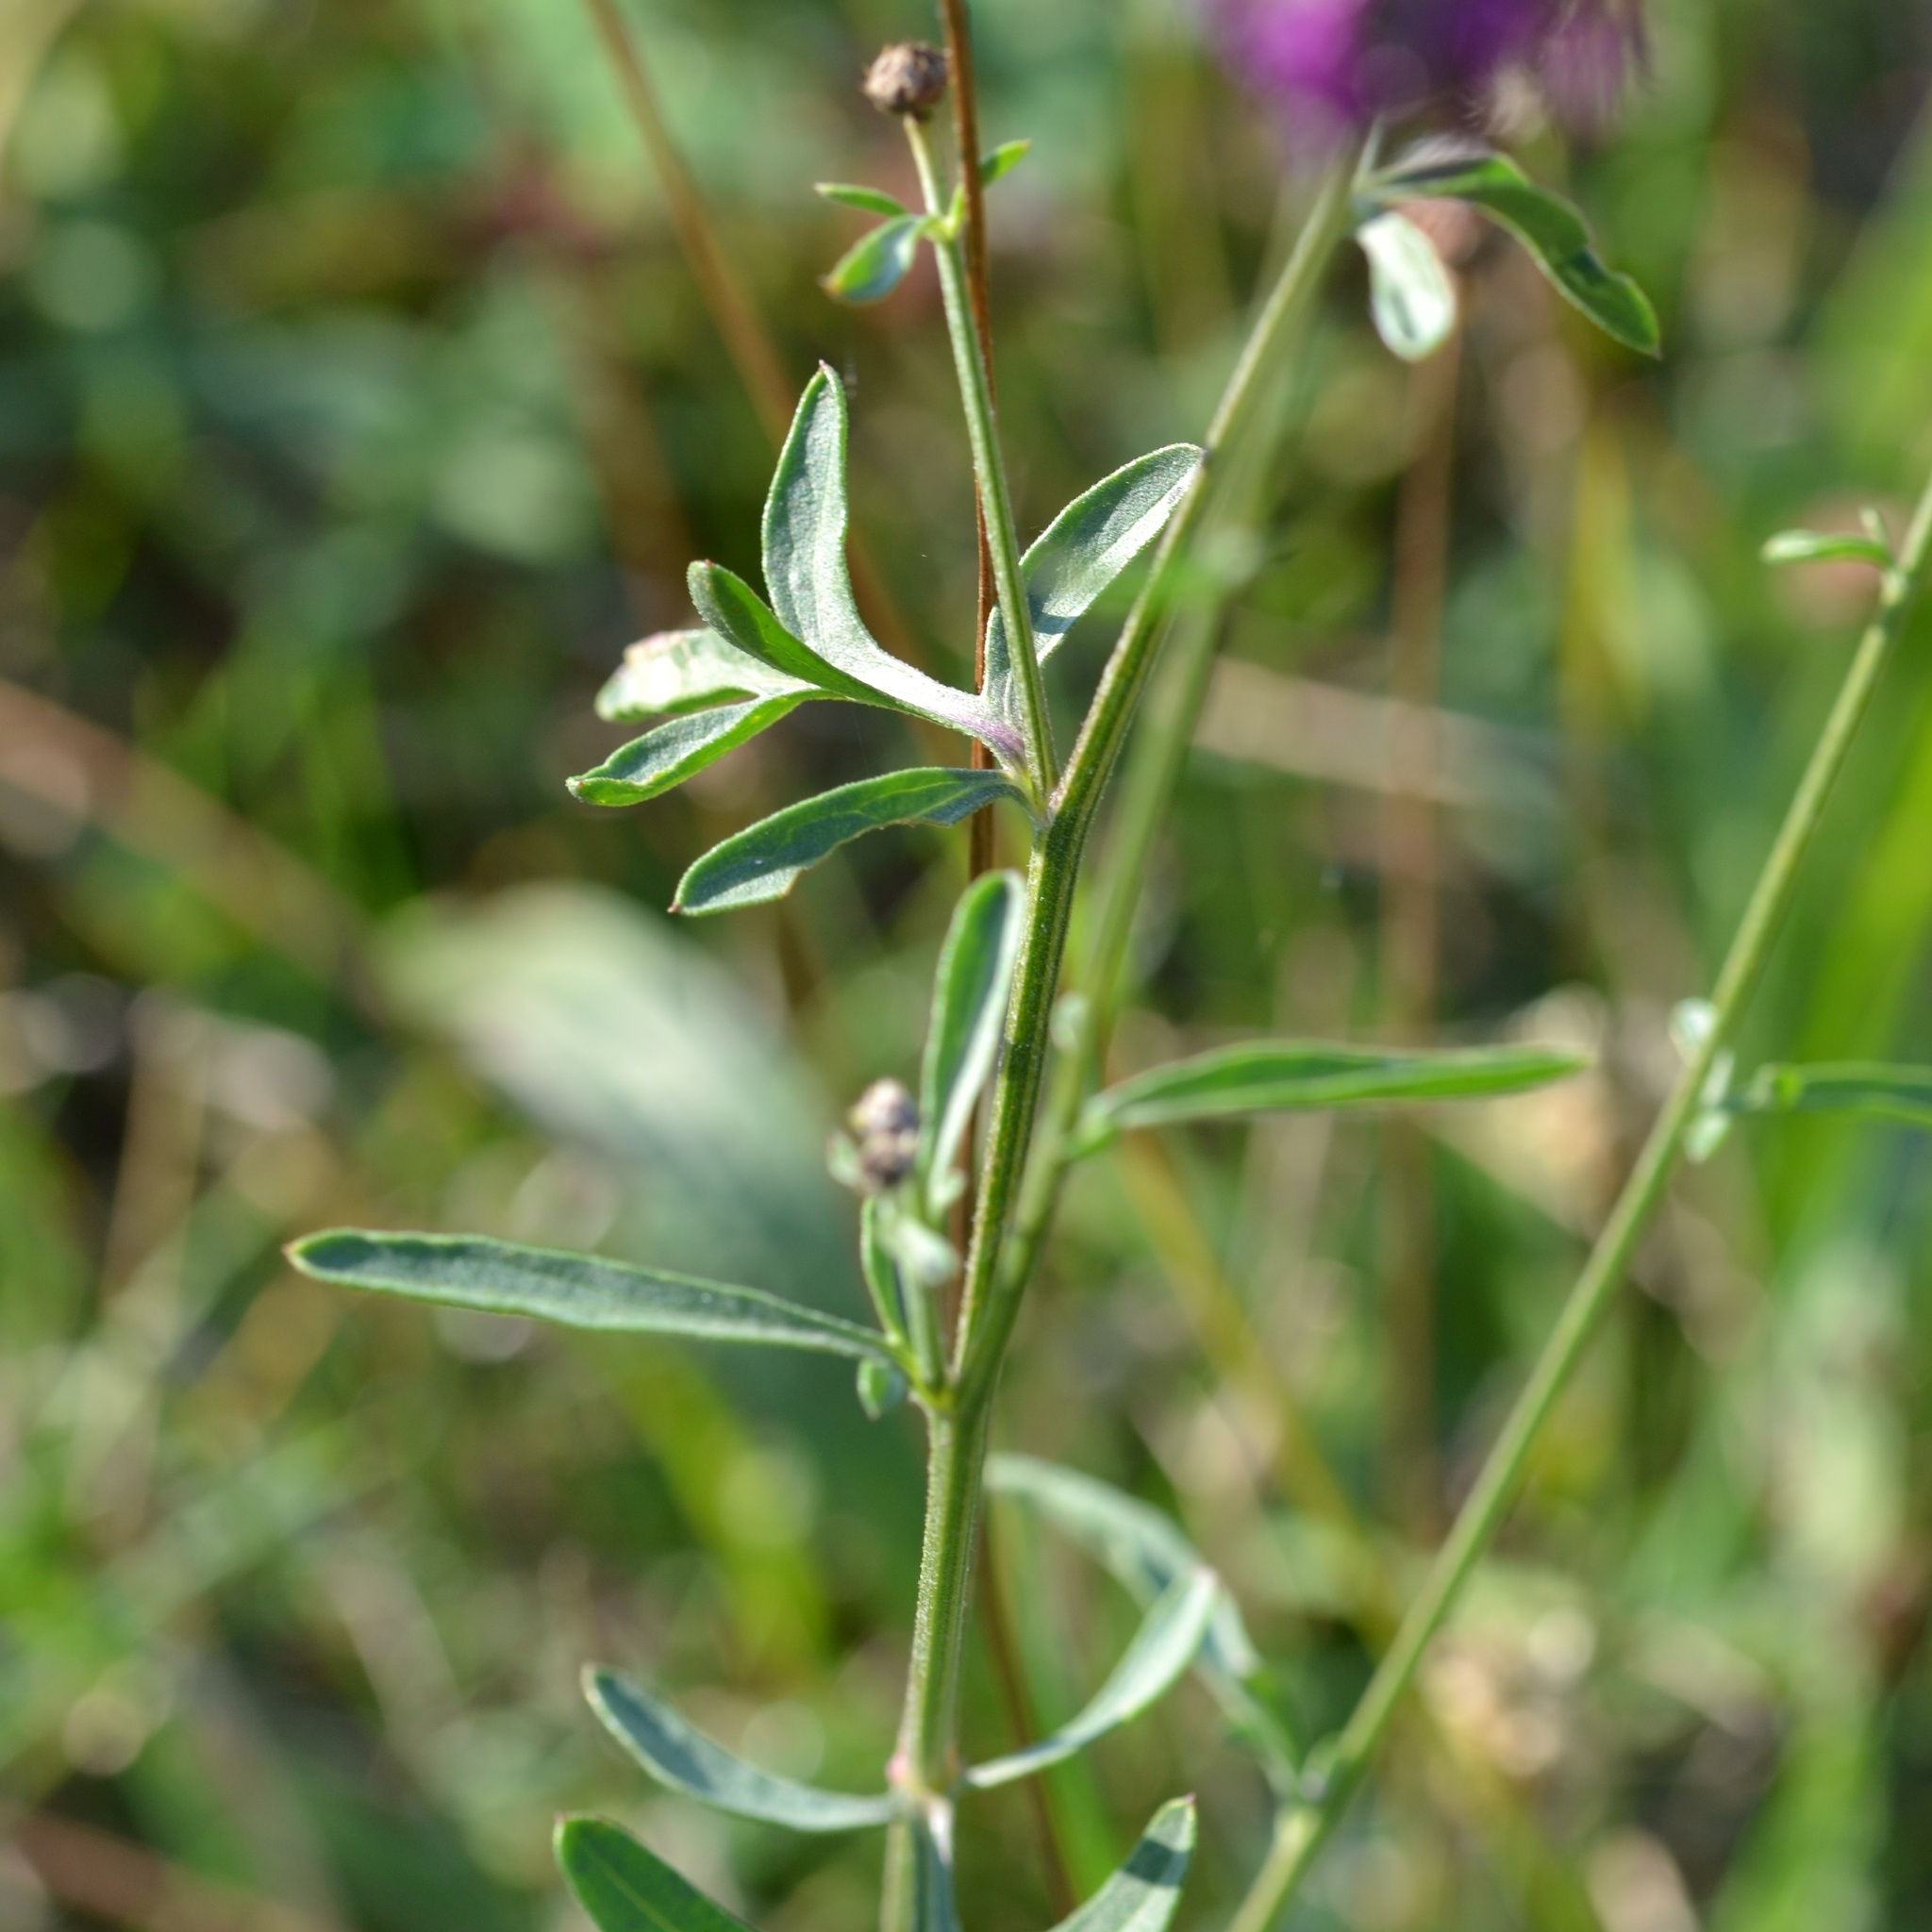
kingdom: Plantae
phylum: Tracheophyta
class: Magnoliopsida
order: Asterales
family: Asteraceae
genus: Centaurea
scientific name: Centaurea scabiosa
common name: Greater knapweed
